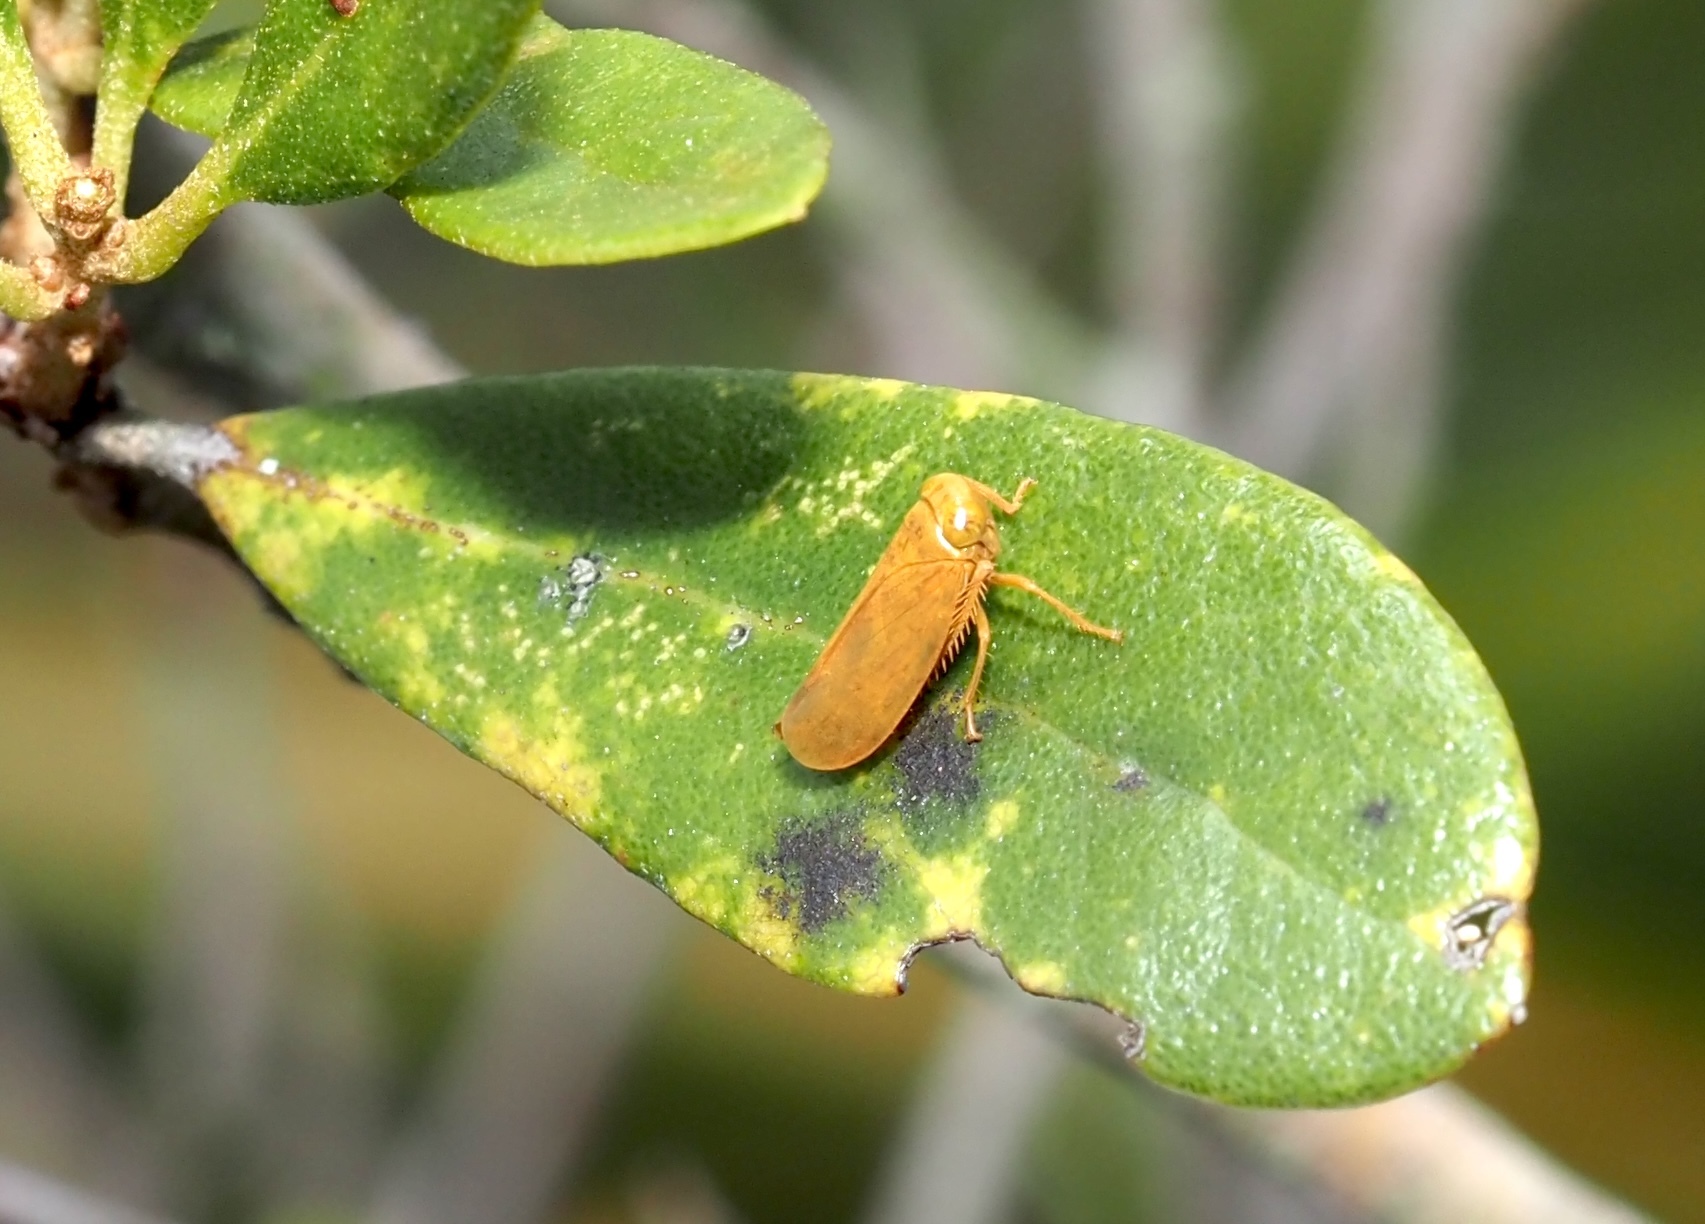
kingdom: Animalia
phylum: Arthropoda
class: Insecta
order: Hemiptera
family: Cicadellidae
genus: Jikradia
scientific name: Jikradia olitoria
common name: Coppery leafhopper
